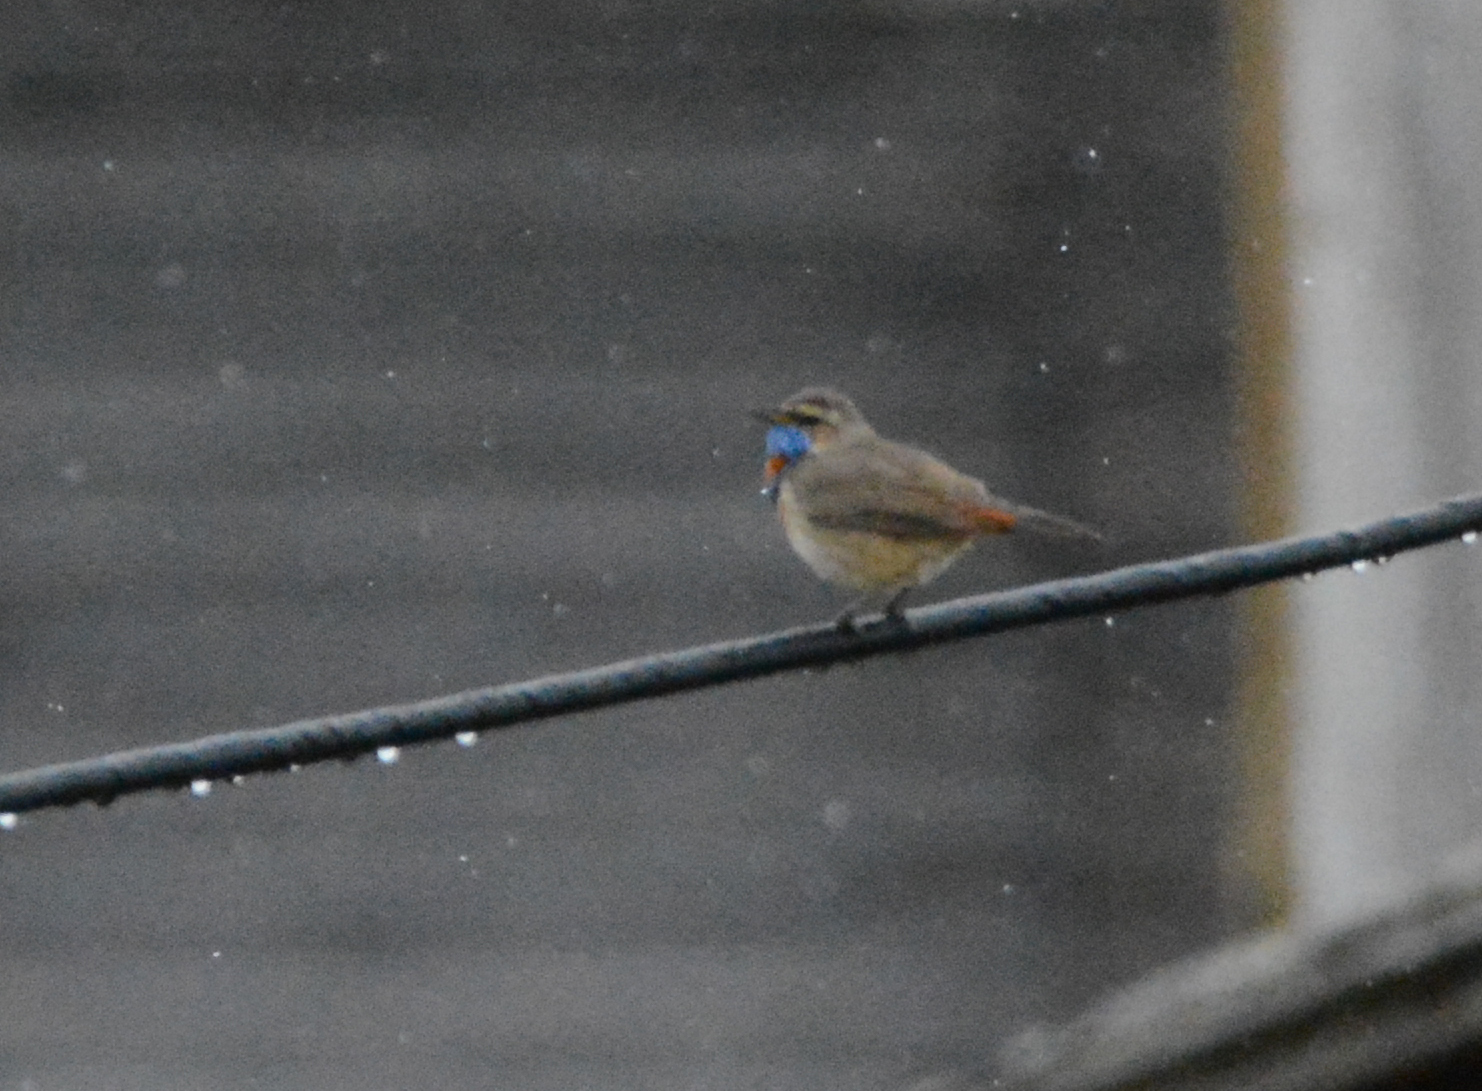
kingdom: Animalia
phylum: Chordata
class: Aves
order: Passeriformes
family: Muscicapidae
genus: Luscinia
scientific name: Luscinia svecica
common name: Bluethroat
